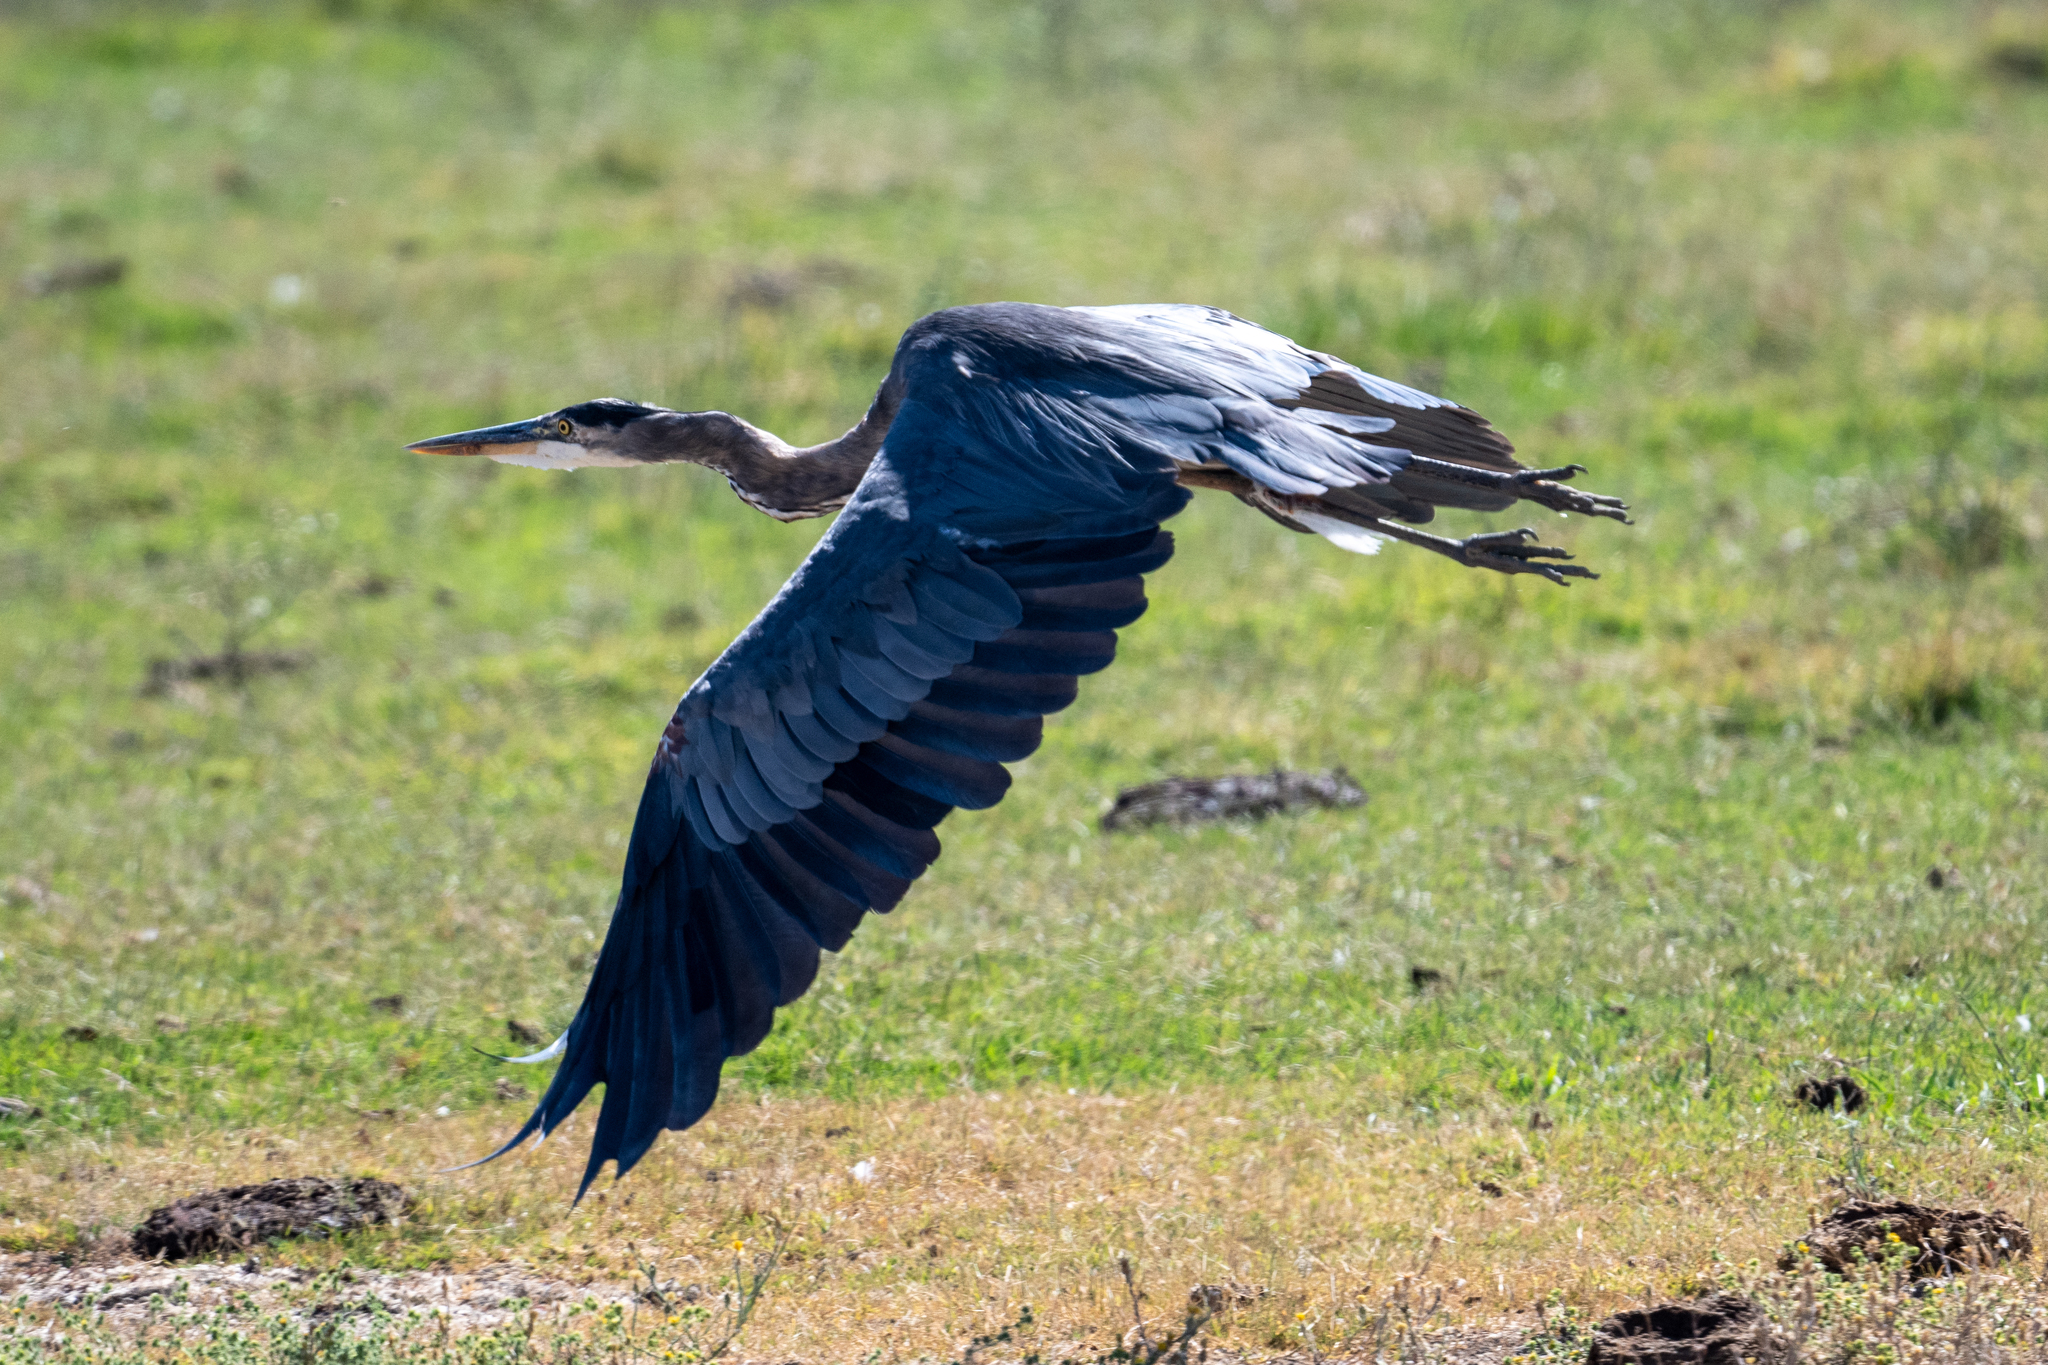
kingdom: Animalia
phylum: Chordata
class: Aves
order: Pelecaniformes
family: Ardeidae
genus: Ardea
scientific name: Ardea herodias
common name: Great blue heron
